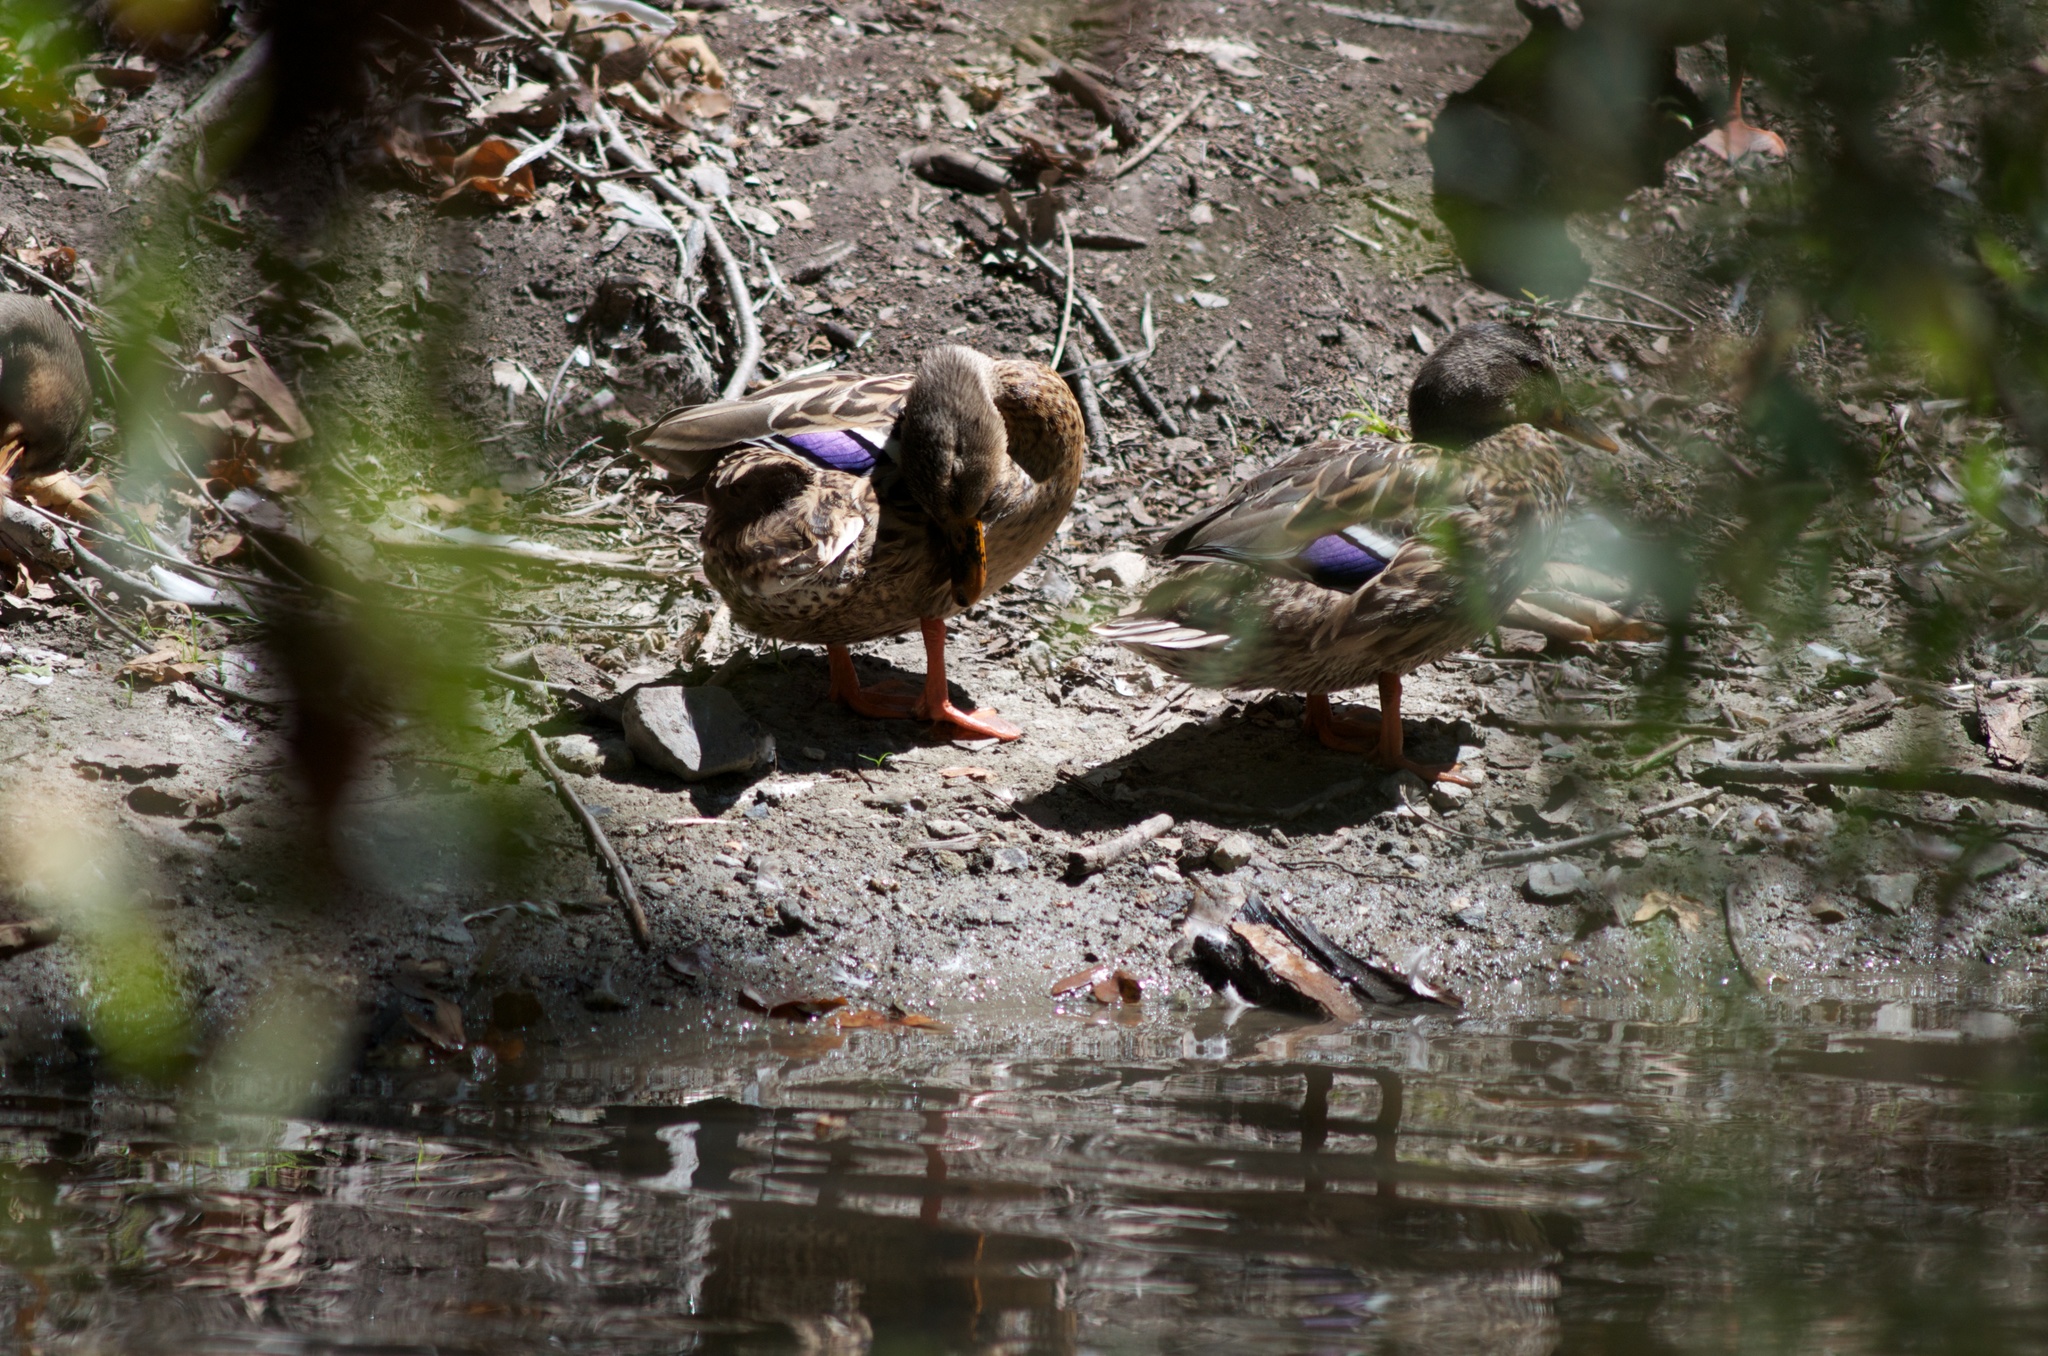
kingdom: Animalia
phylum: Chordata
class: Aves
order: Anseriformes
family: Anatidae
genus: Anas
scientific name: Anas platyrhynchos
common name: Mallard
